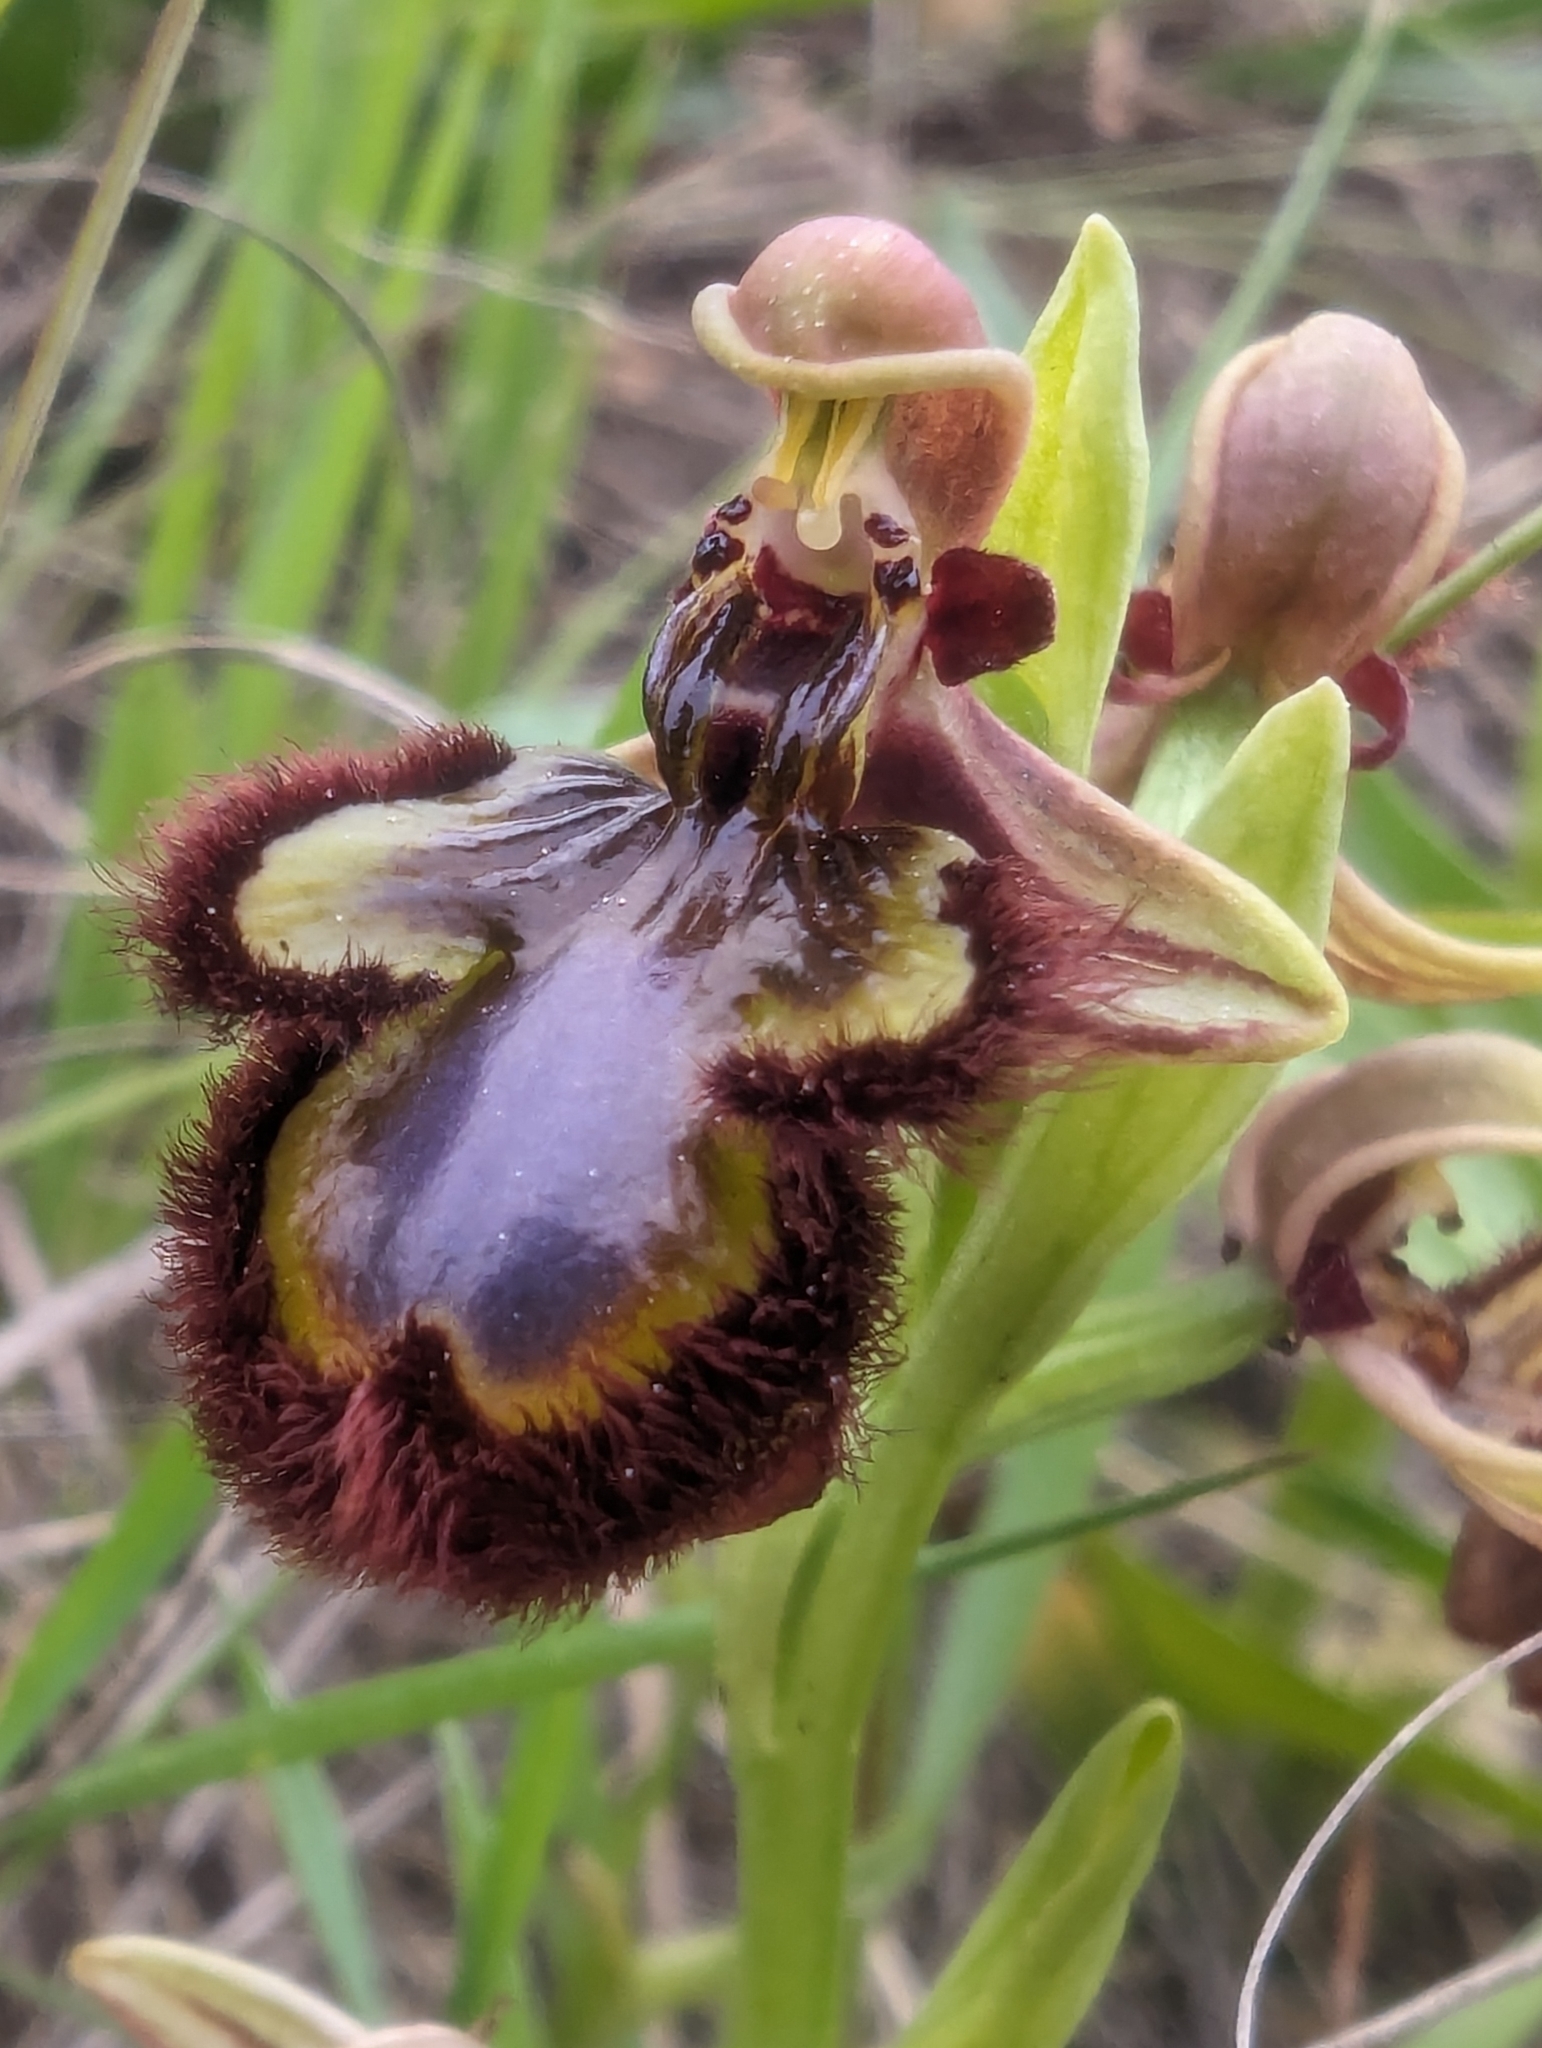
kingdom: Plantae
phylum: Tracheophyta
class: Liliopsida
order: Asparagales
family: Orchidaceae
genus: Ophrys
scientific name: Ophrys speculum
